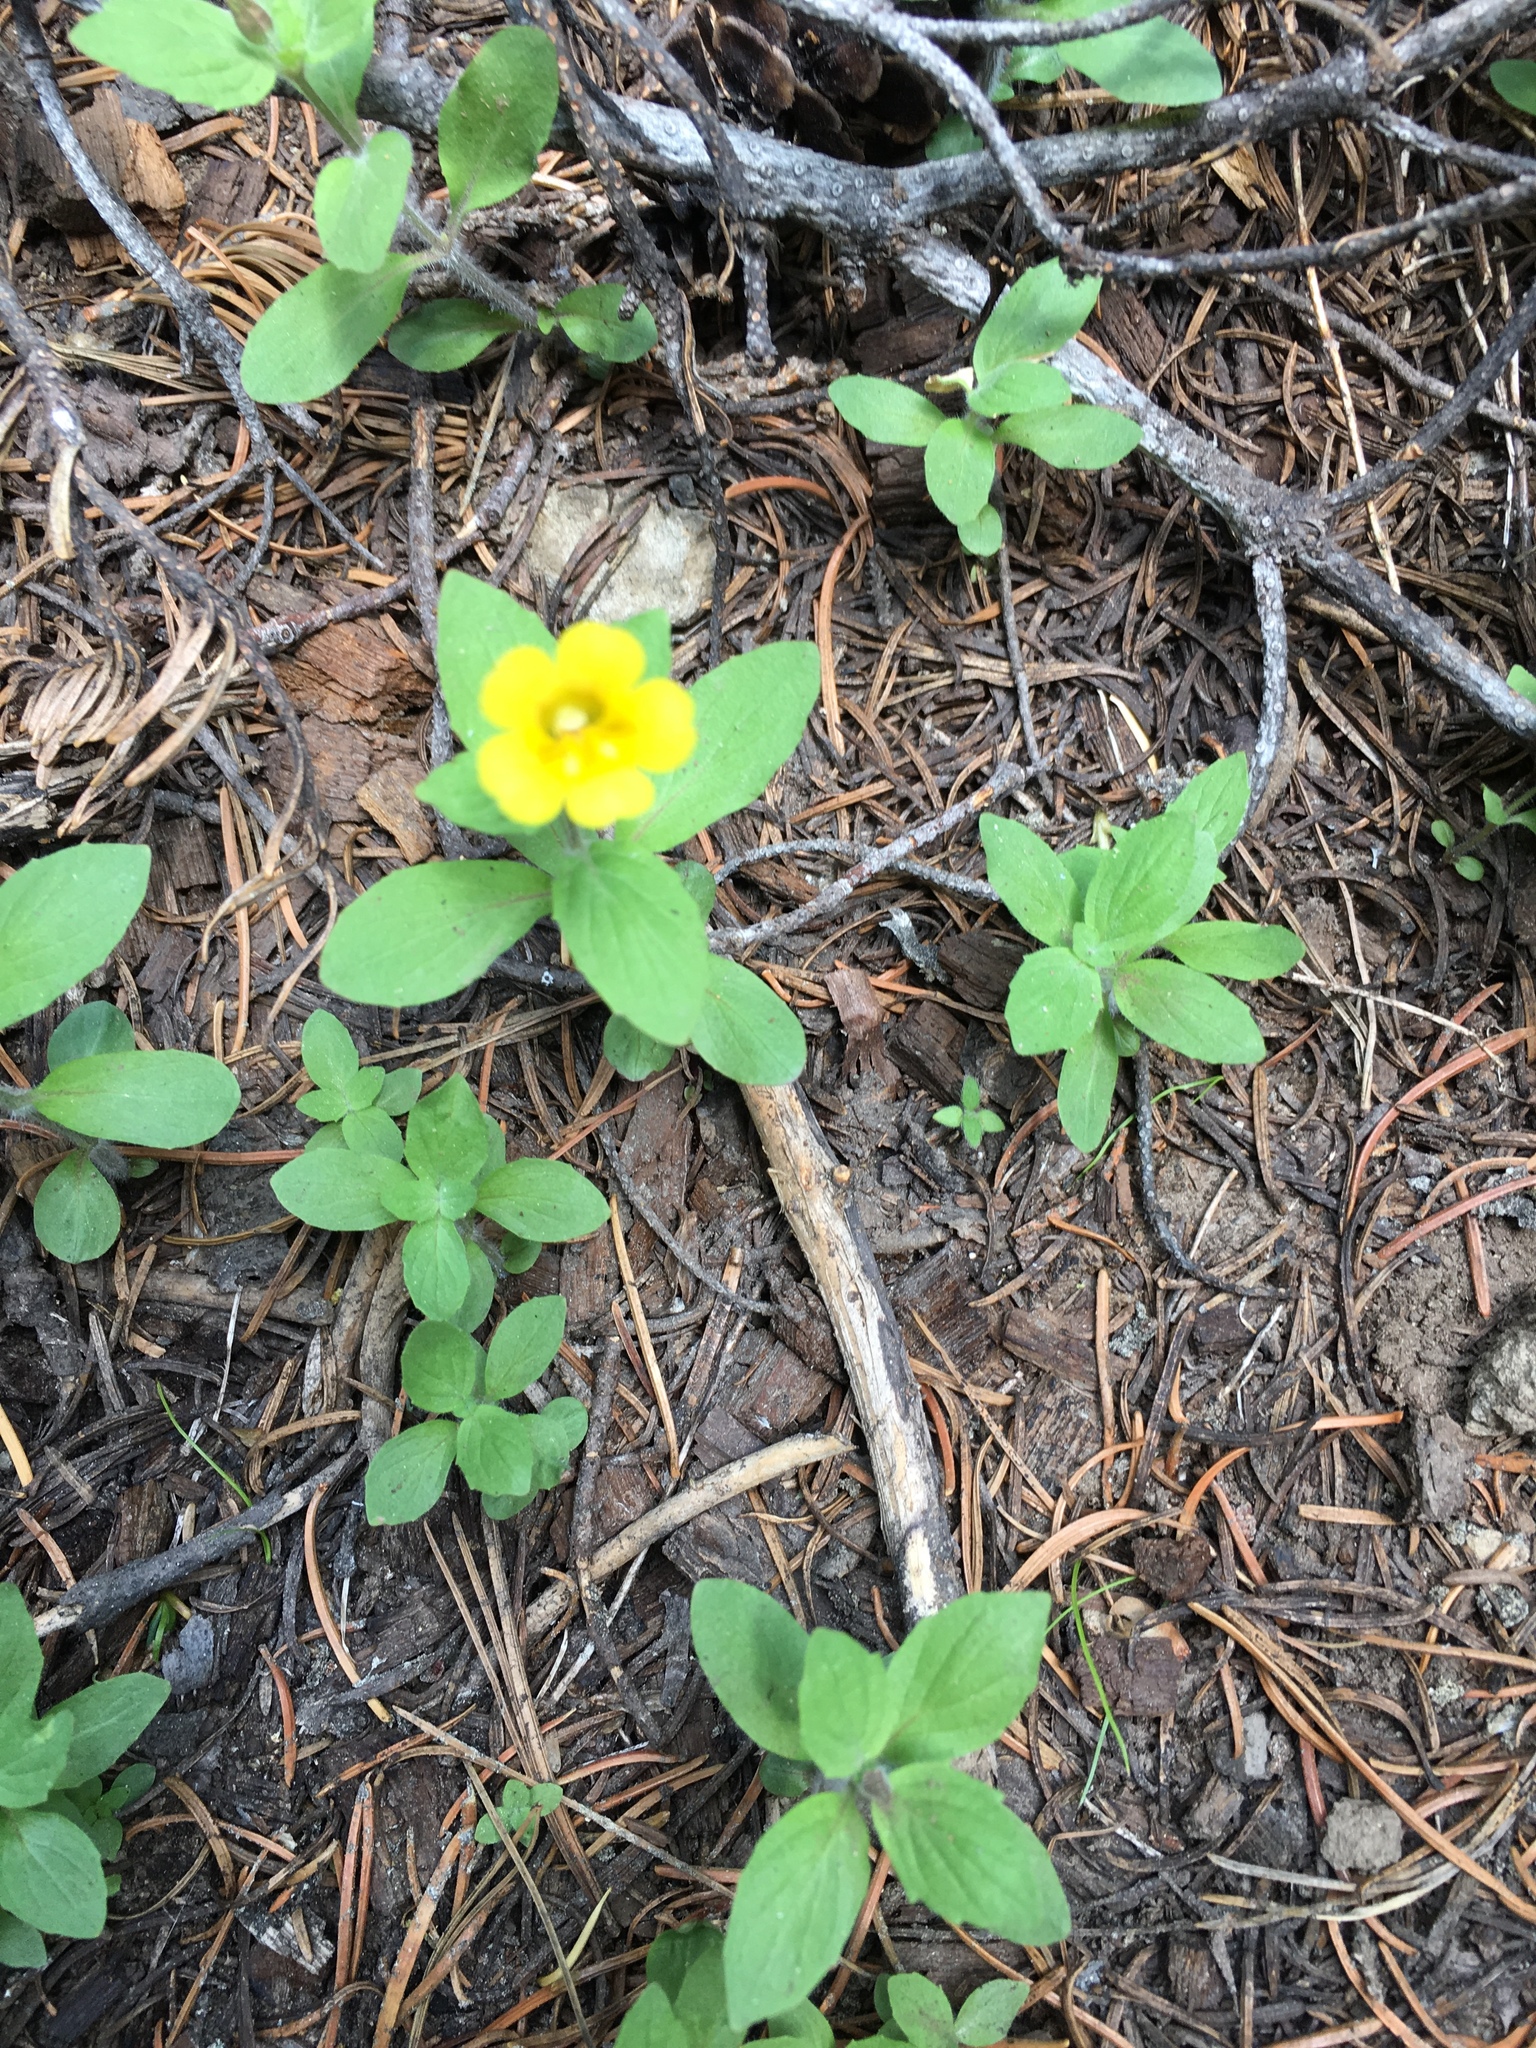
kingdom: Plantae
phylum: Tracheophyta
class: Magnoliopsida
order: Lamiales
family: Phrymaceae
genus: Erythranthe
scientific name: Erythranthe moschata
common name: Muskflower
